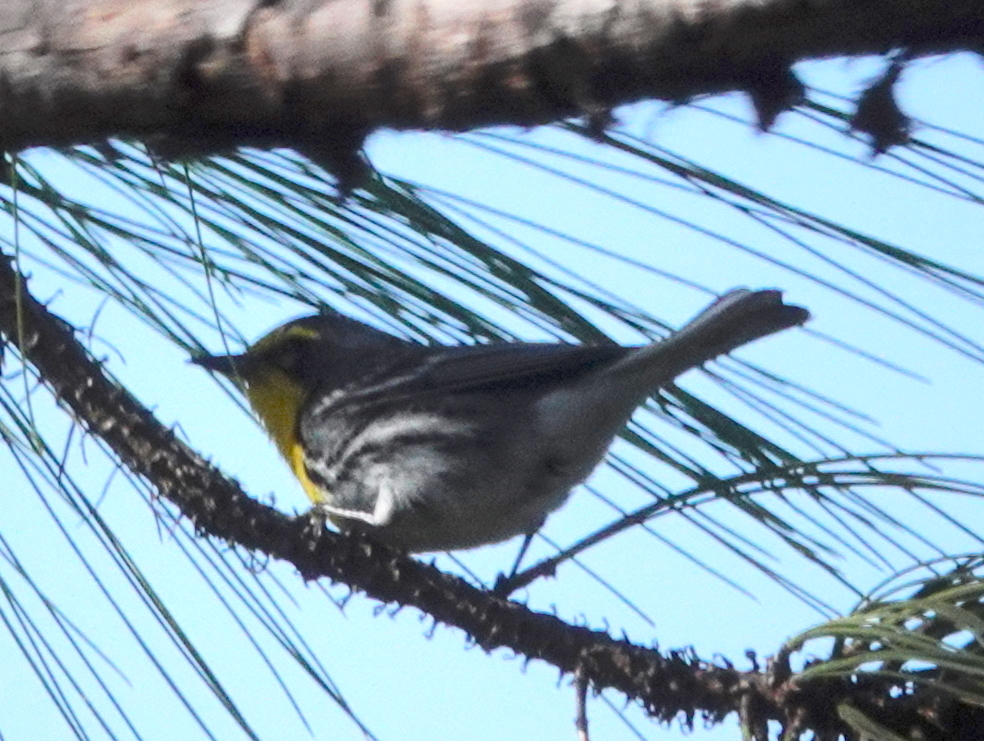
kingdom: Animalia
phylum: Chordata
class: Aves
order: Passeriformes
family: Parulidae
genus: Setophaga
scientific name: Setophaga graciae
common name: Grace's warbler
